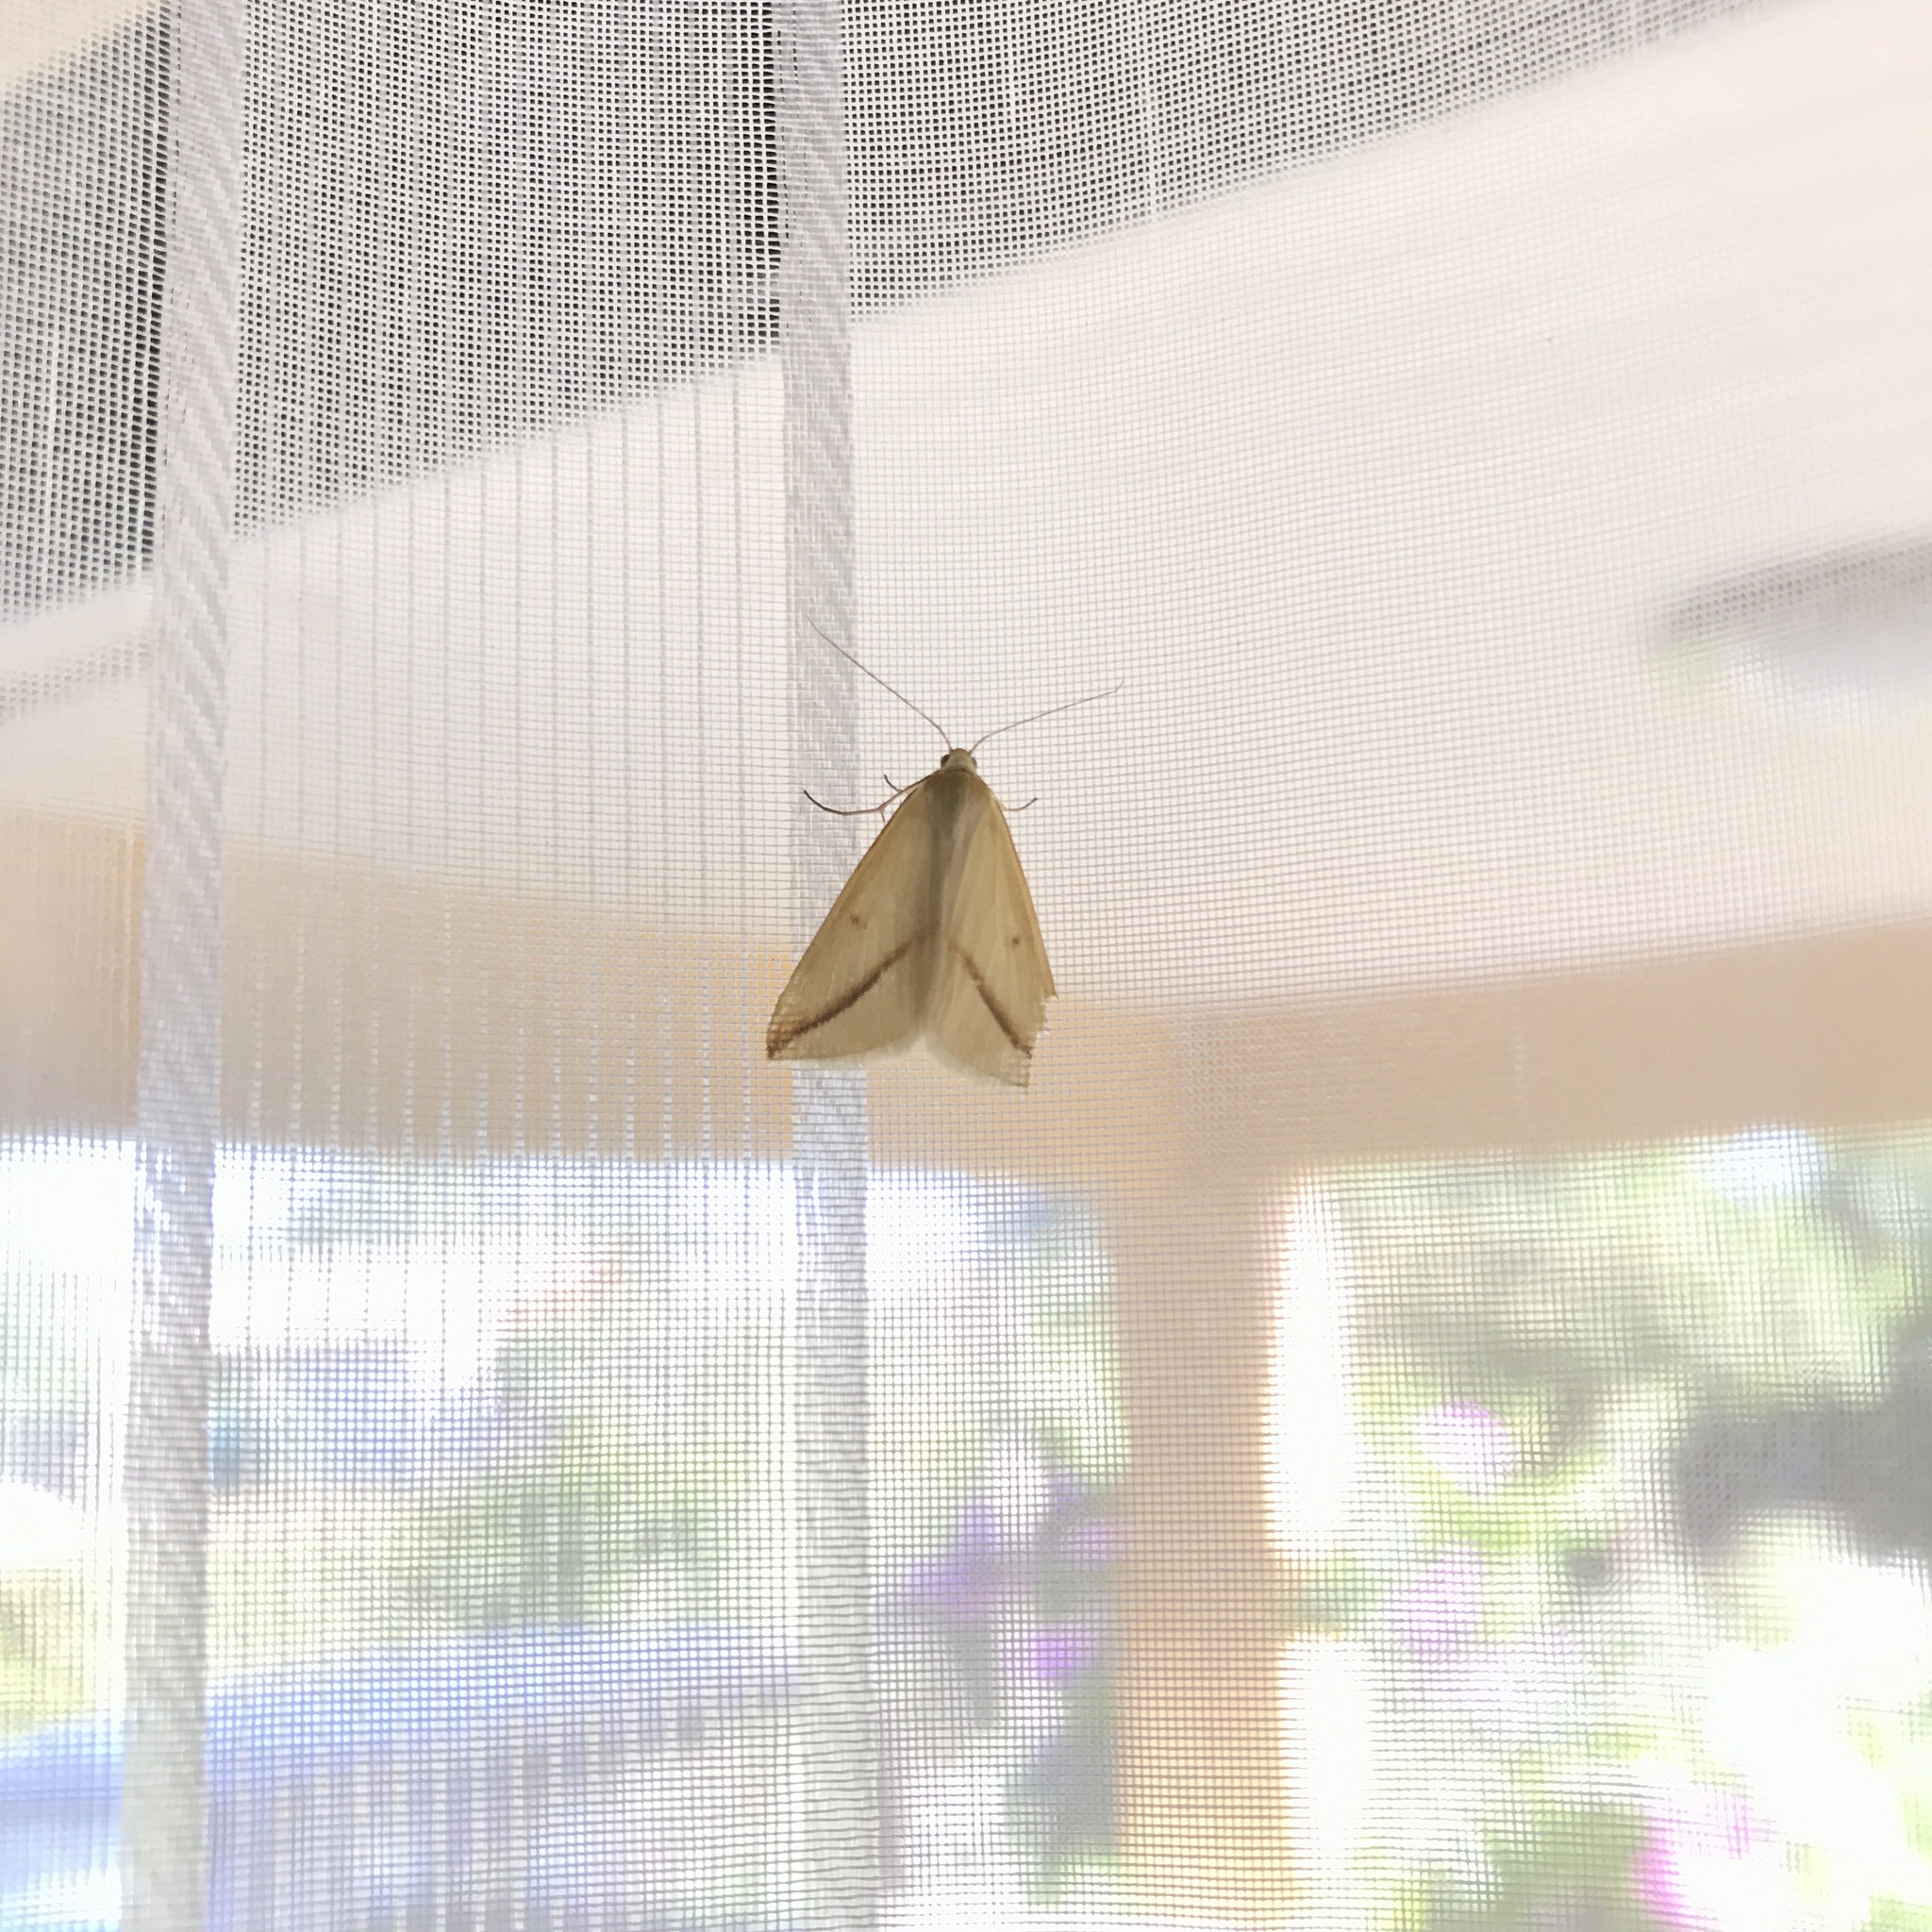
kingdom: Animalia
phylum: Arthropoda
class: Insecta
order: Lepidoptera
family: Geometridae
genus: Rhodometra
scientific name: Rhodometra sacraria
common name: Vestal
